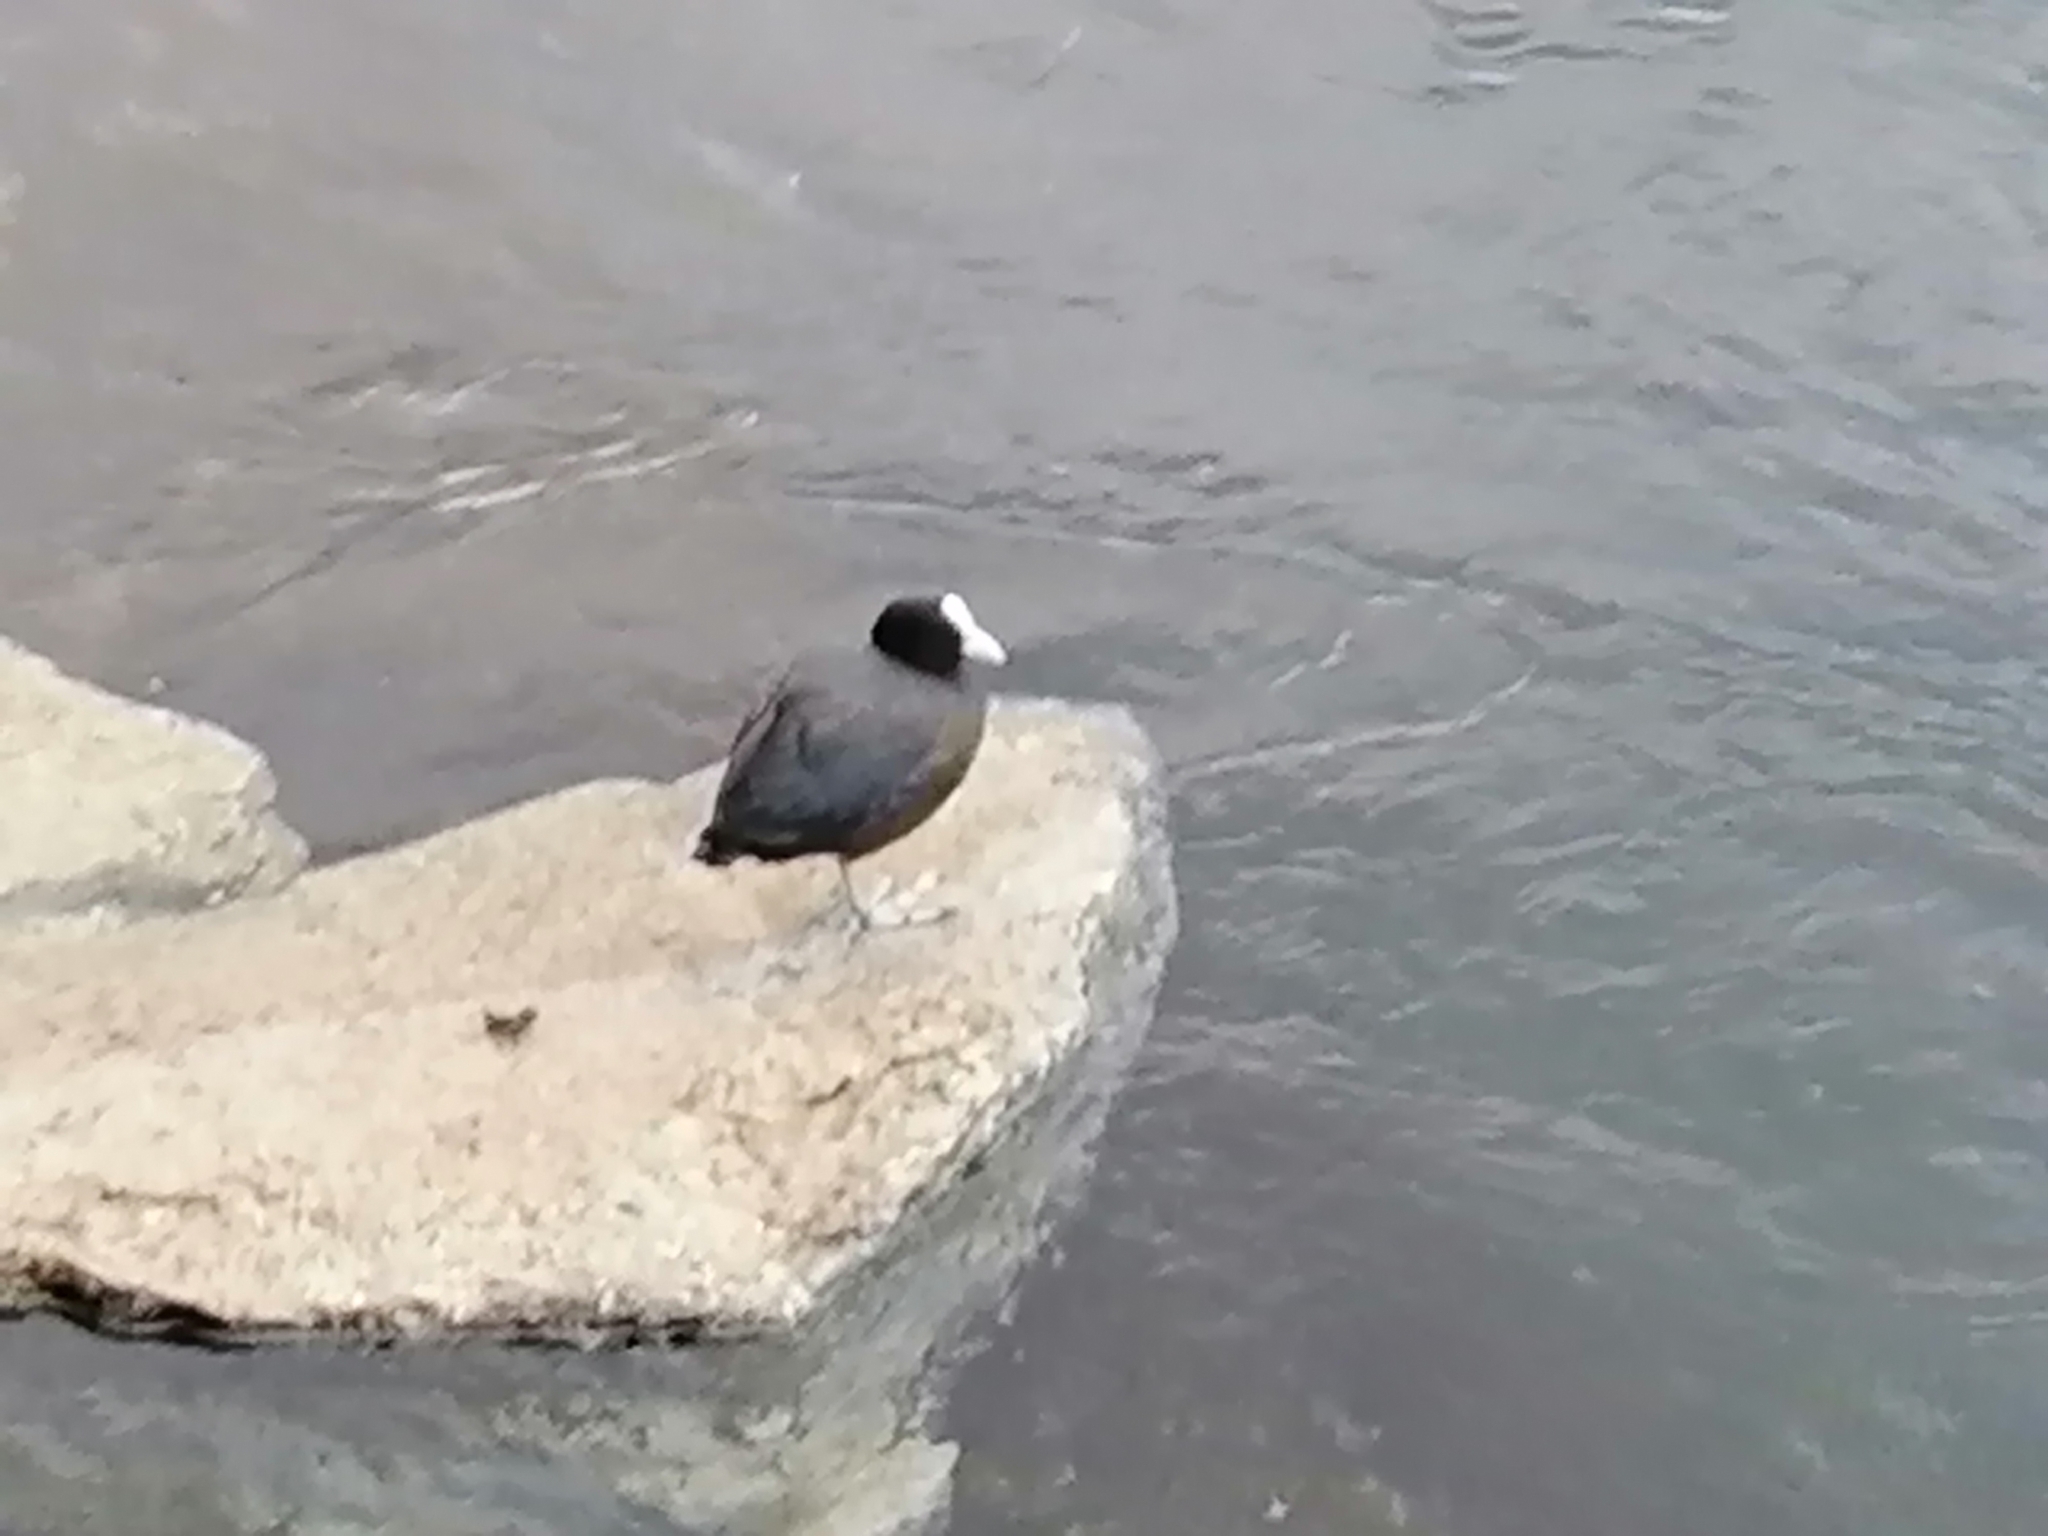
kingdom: Animalia
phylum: Chordata
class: Aves
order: Gruiformes
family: Rallidae
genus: Fulica
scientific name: Fulica atra
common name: Eurasian coot
